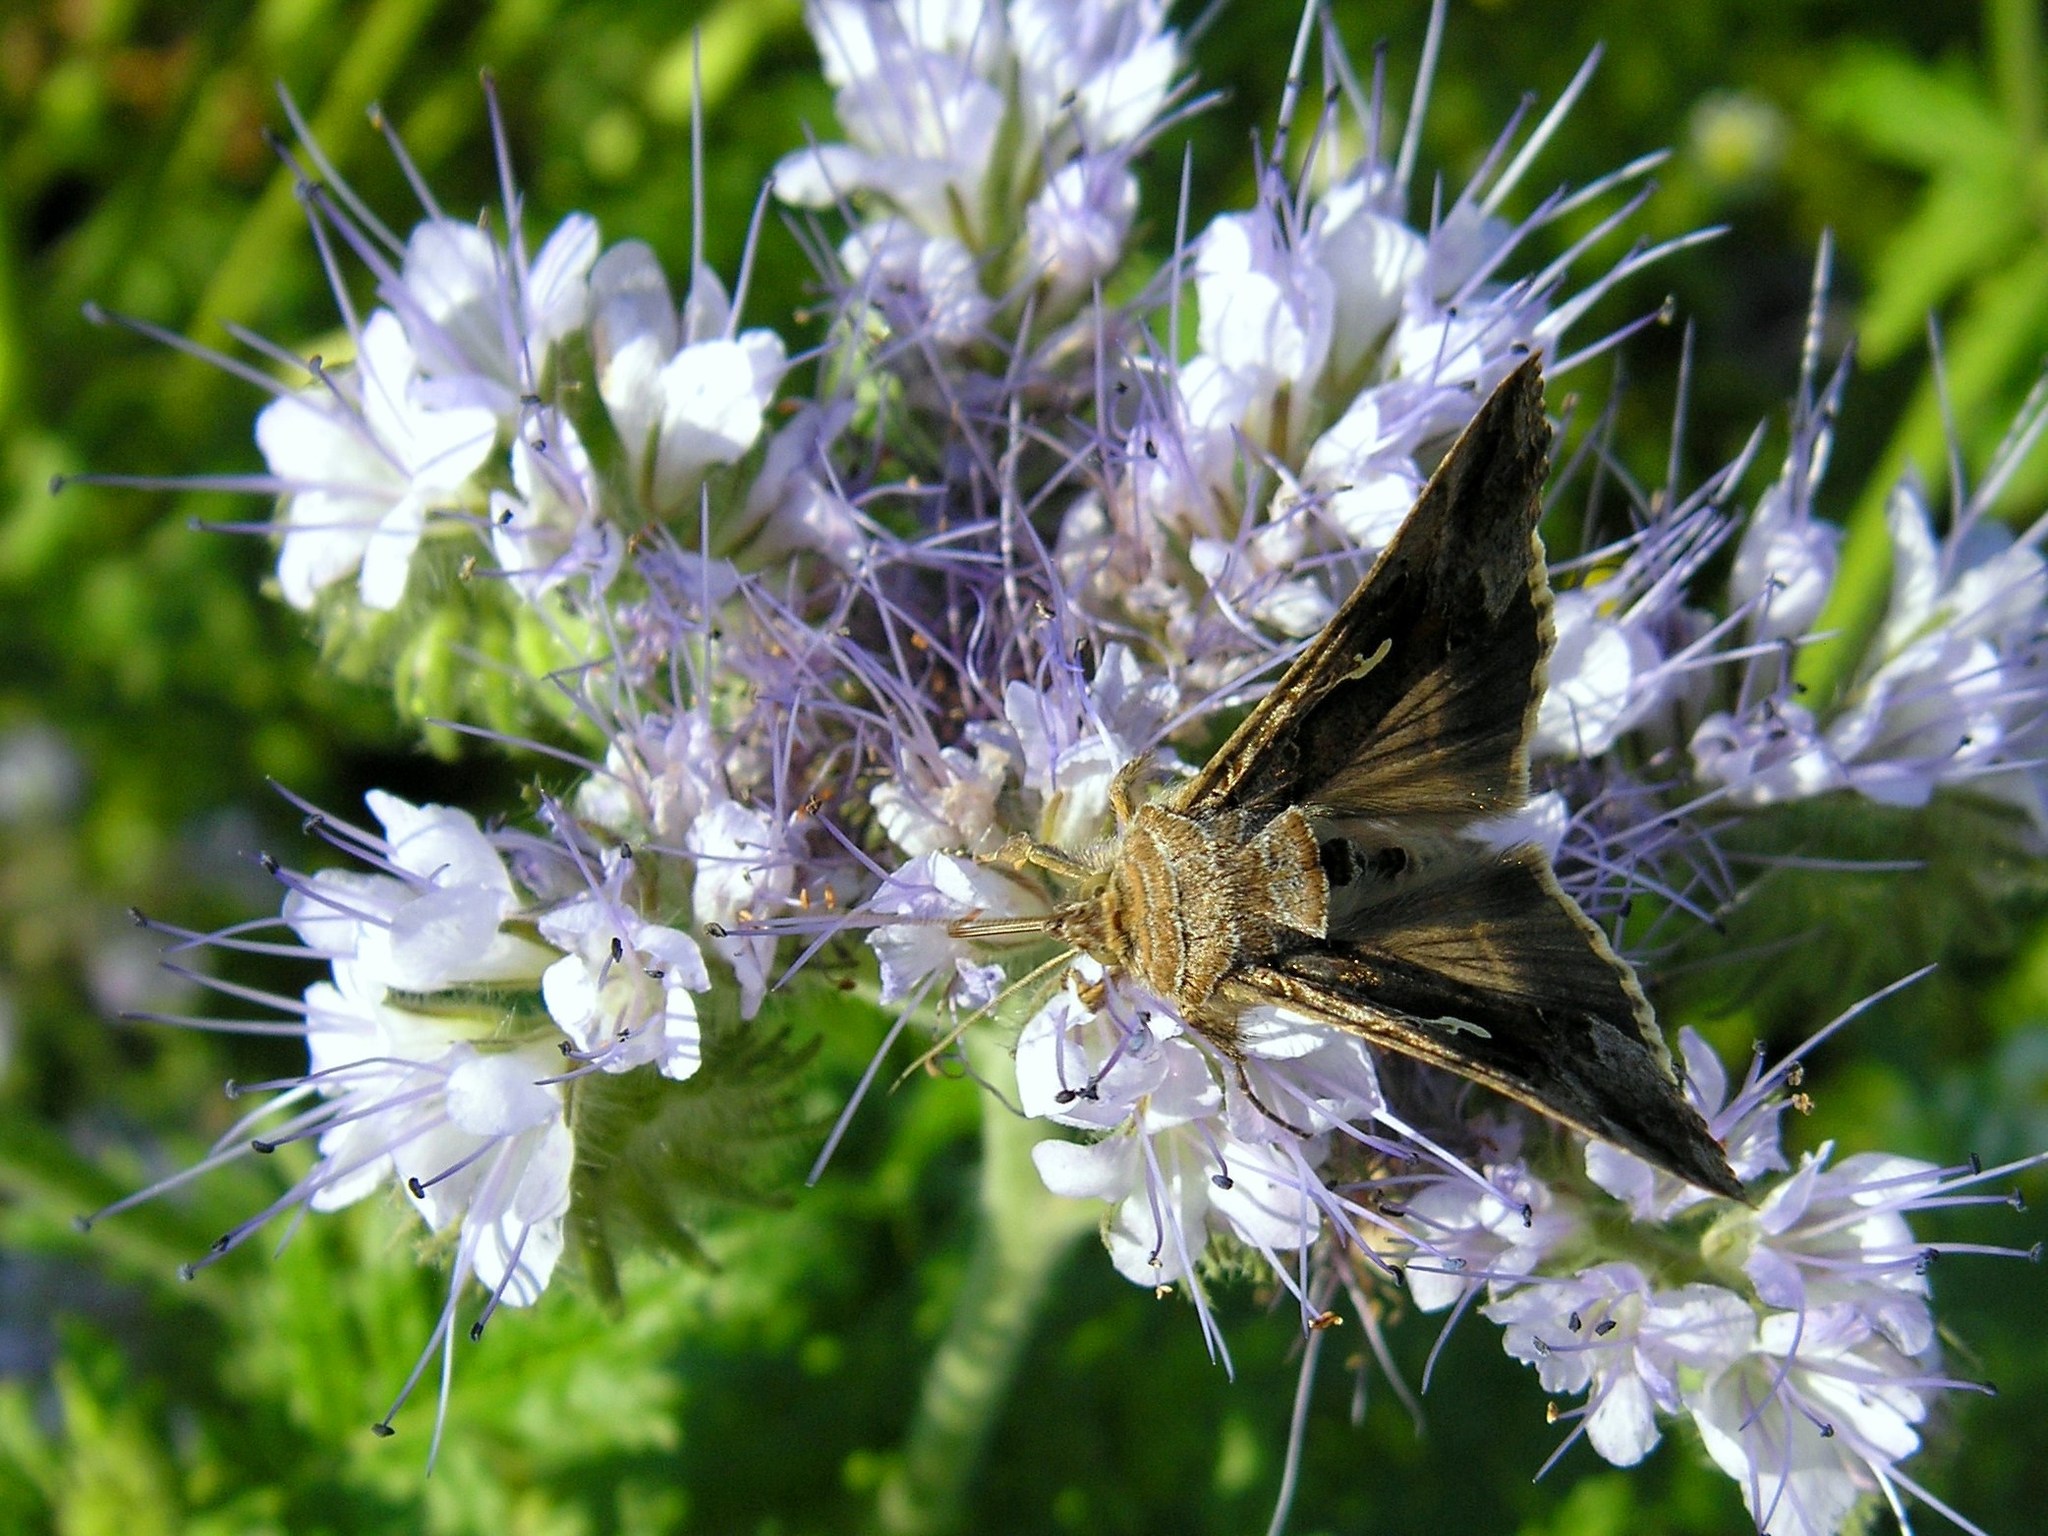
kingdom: Animalia
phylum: Arthropoda
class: Insecta
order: Lepidoptera
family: Noctuidae
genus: Autographa
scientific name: Autographa gamma
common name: Silver y
